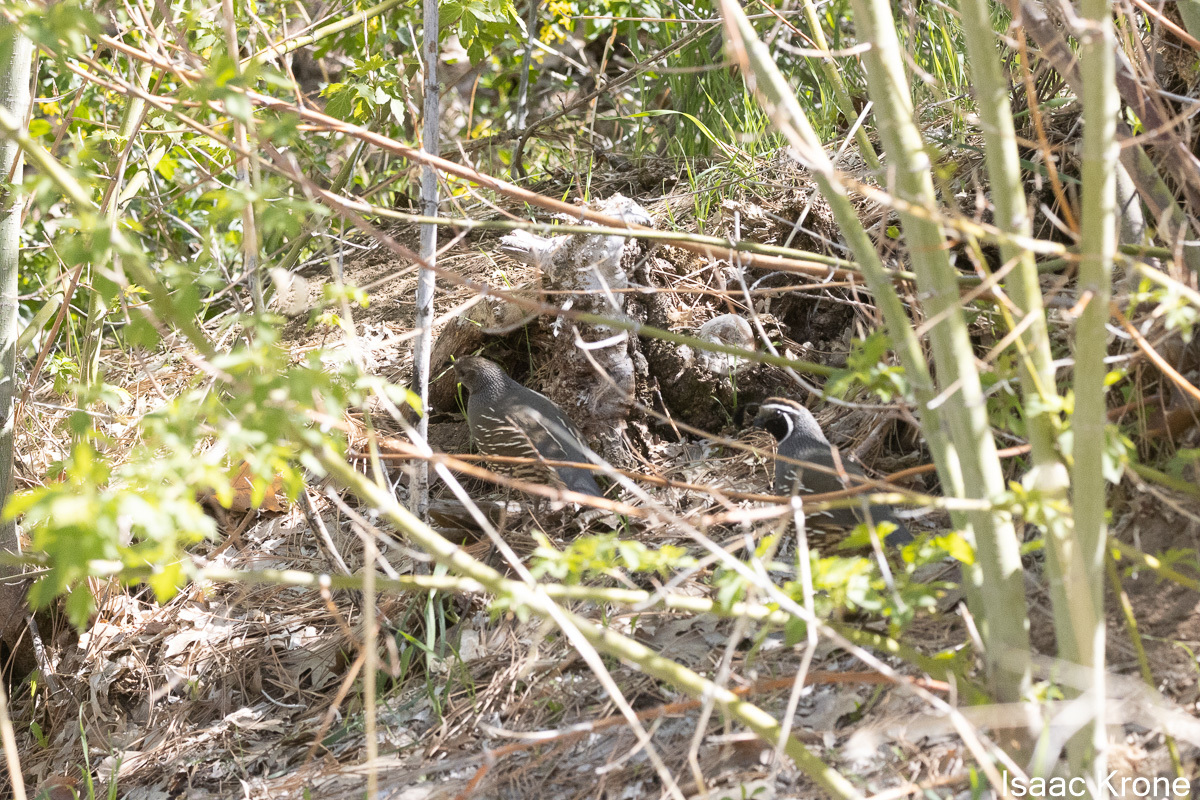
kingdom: Animalia
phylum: Chordata
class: Aves
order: Galliformes
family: Odontophoridae
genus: Callipepla
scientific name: Callipepla californica
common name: California quail
